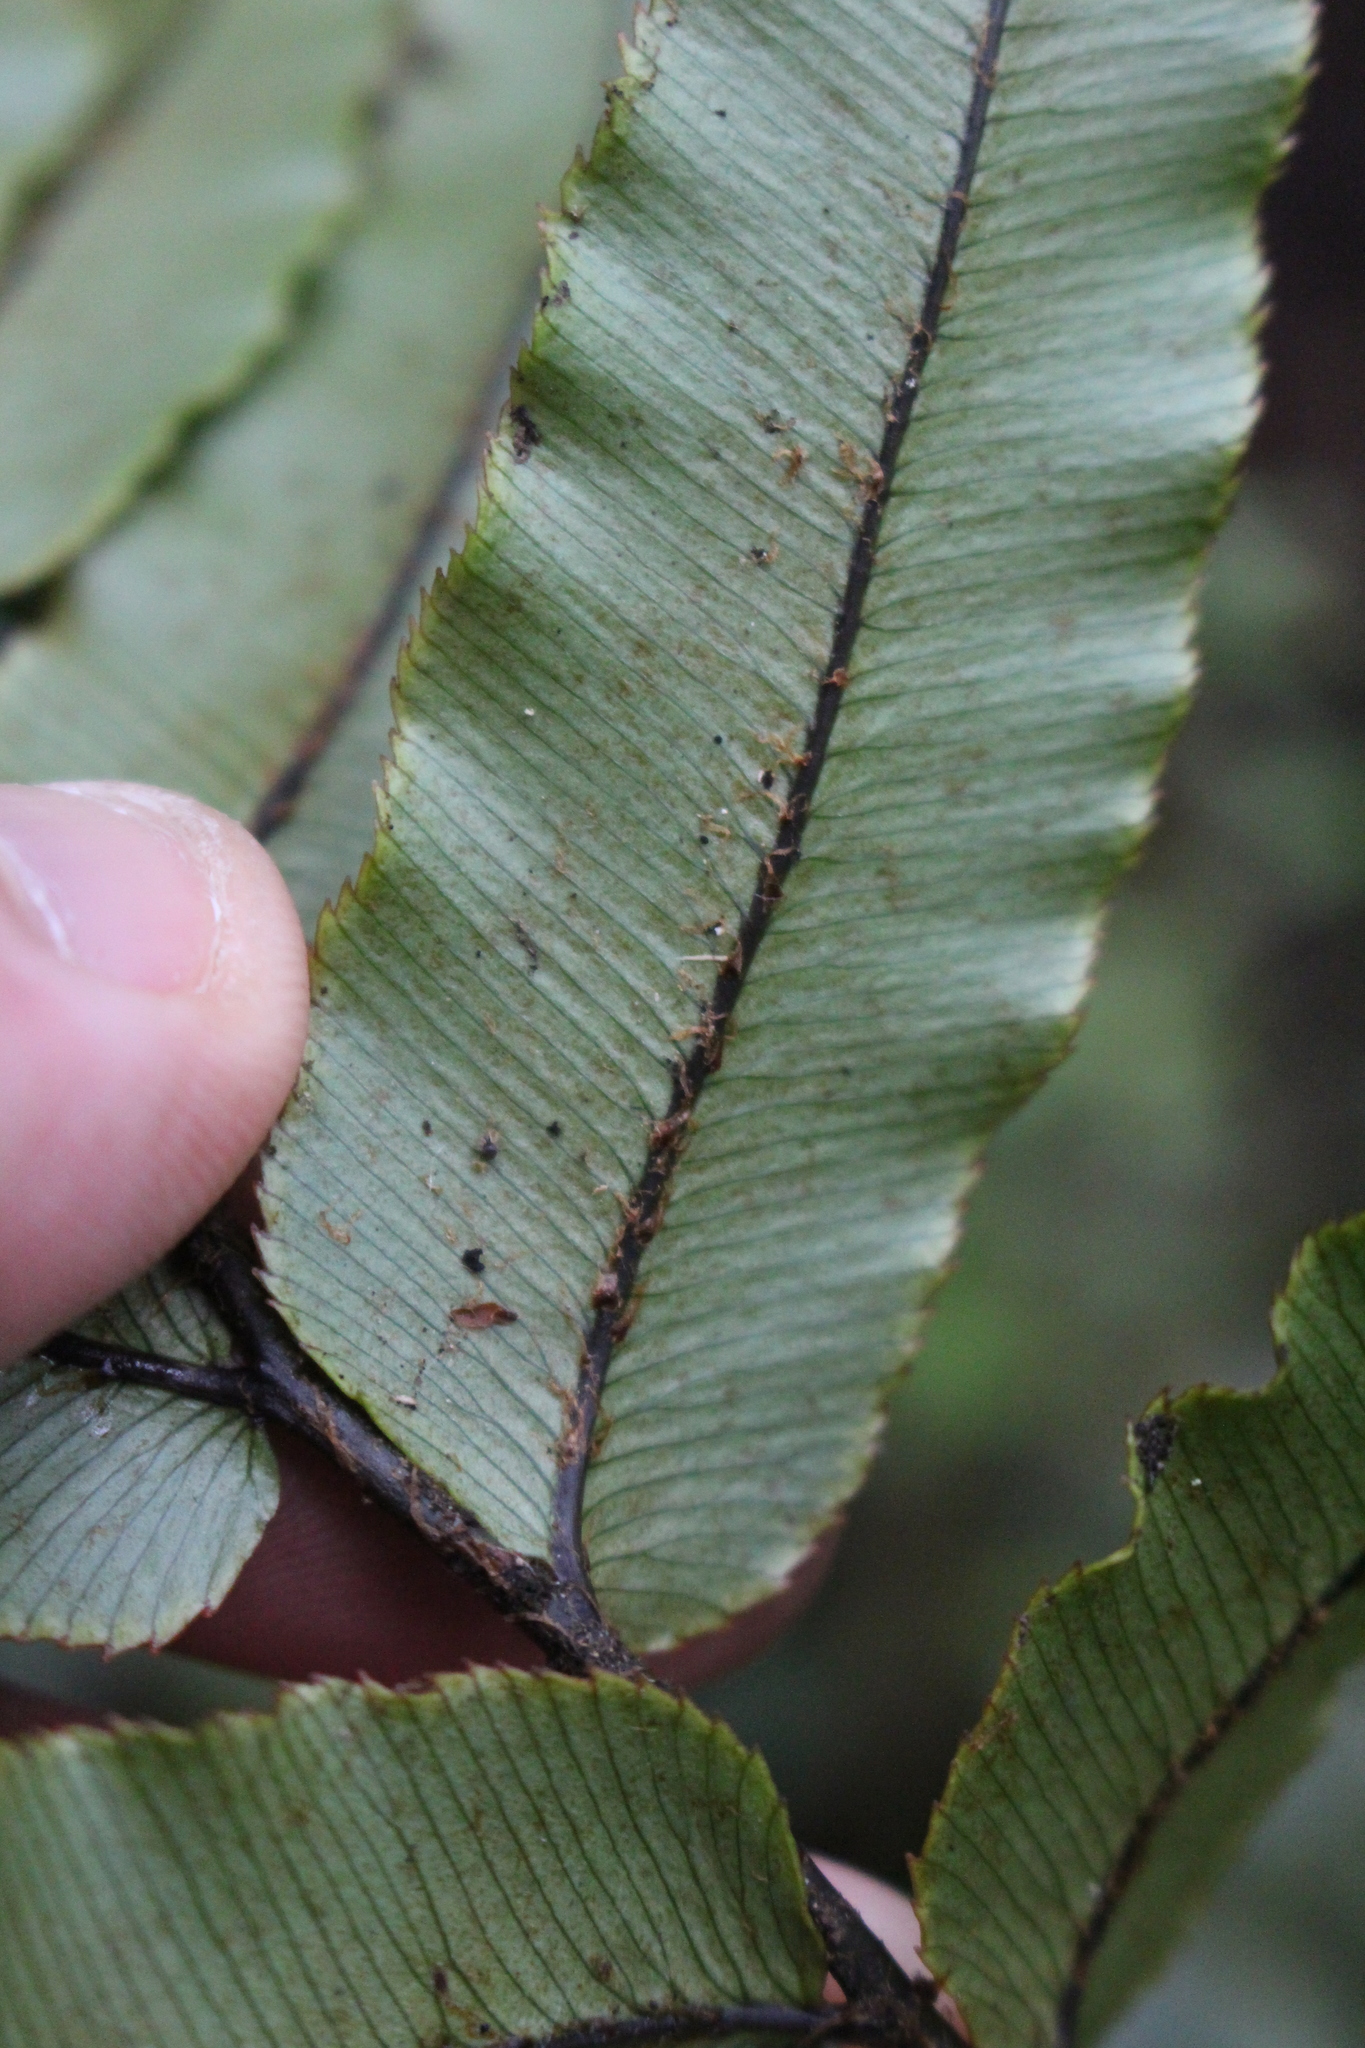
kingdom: Plantae
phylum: Tracheophyta
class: Polypodiopsida
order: Polypodiales
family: Blechnaceae
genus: Parablechnum
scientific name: Parablechnum procerum
